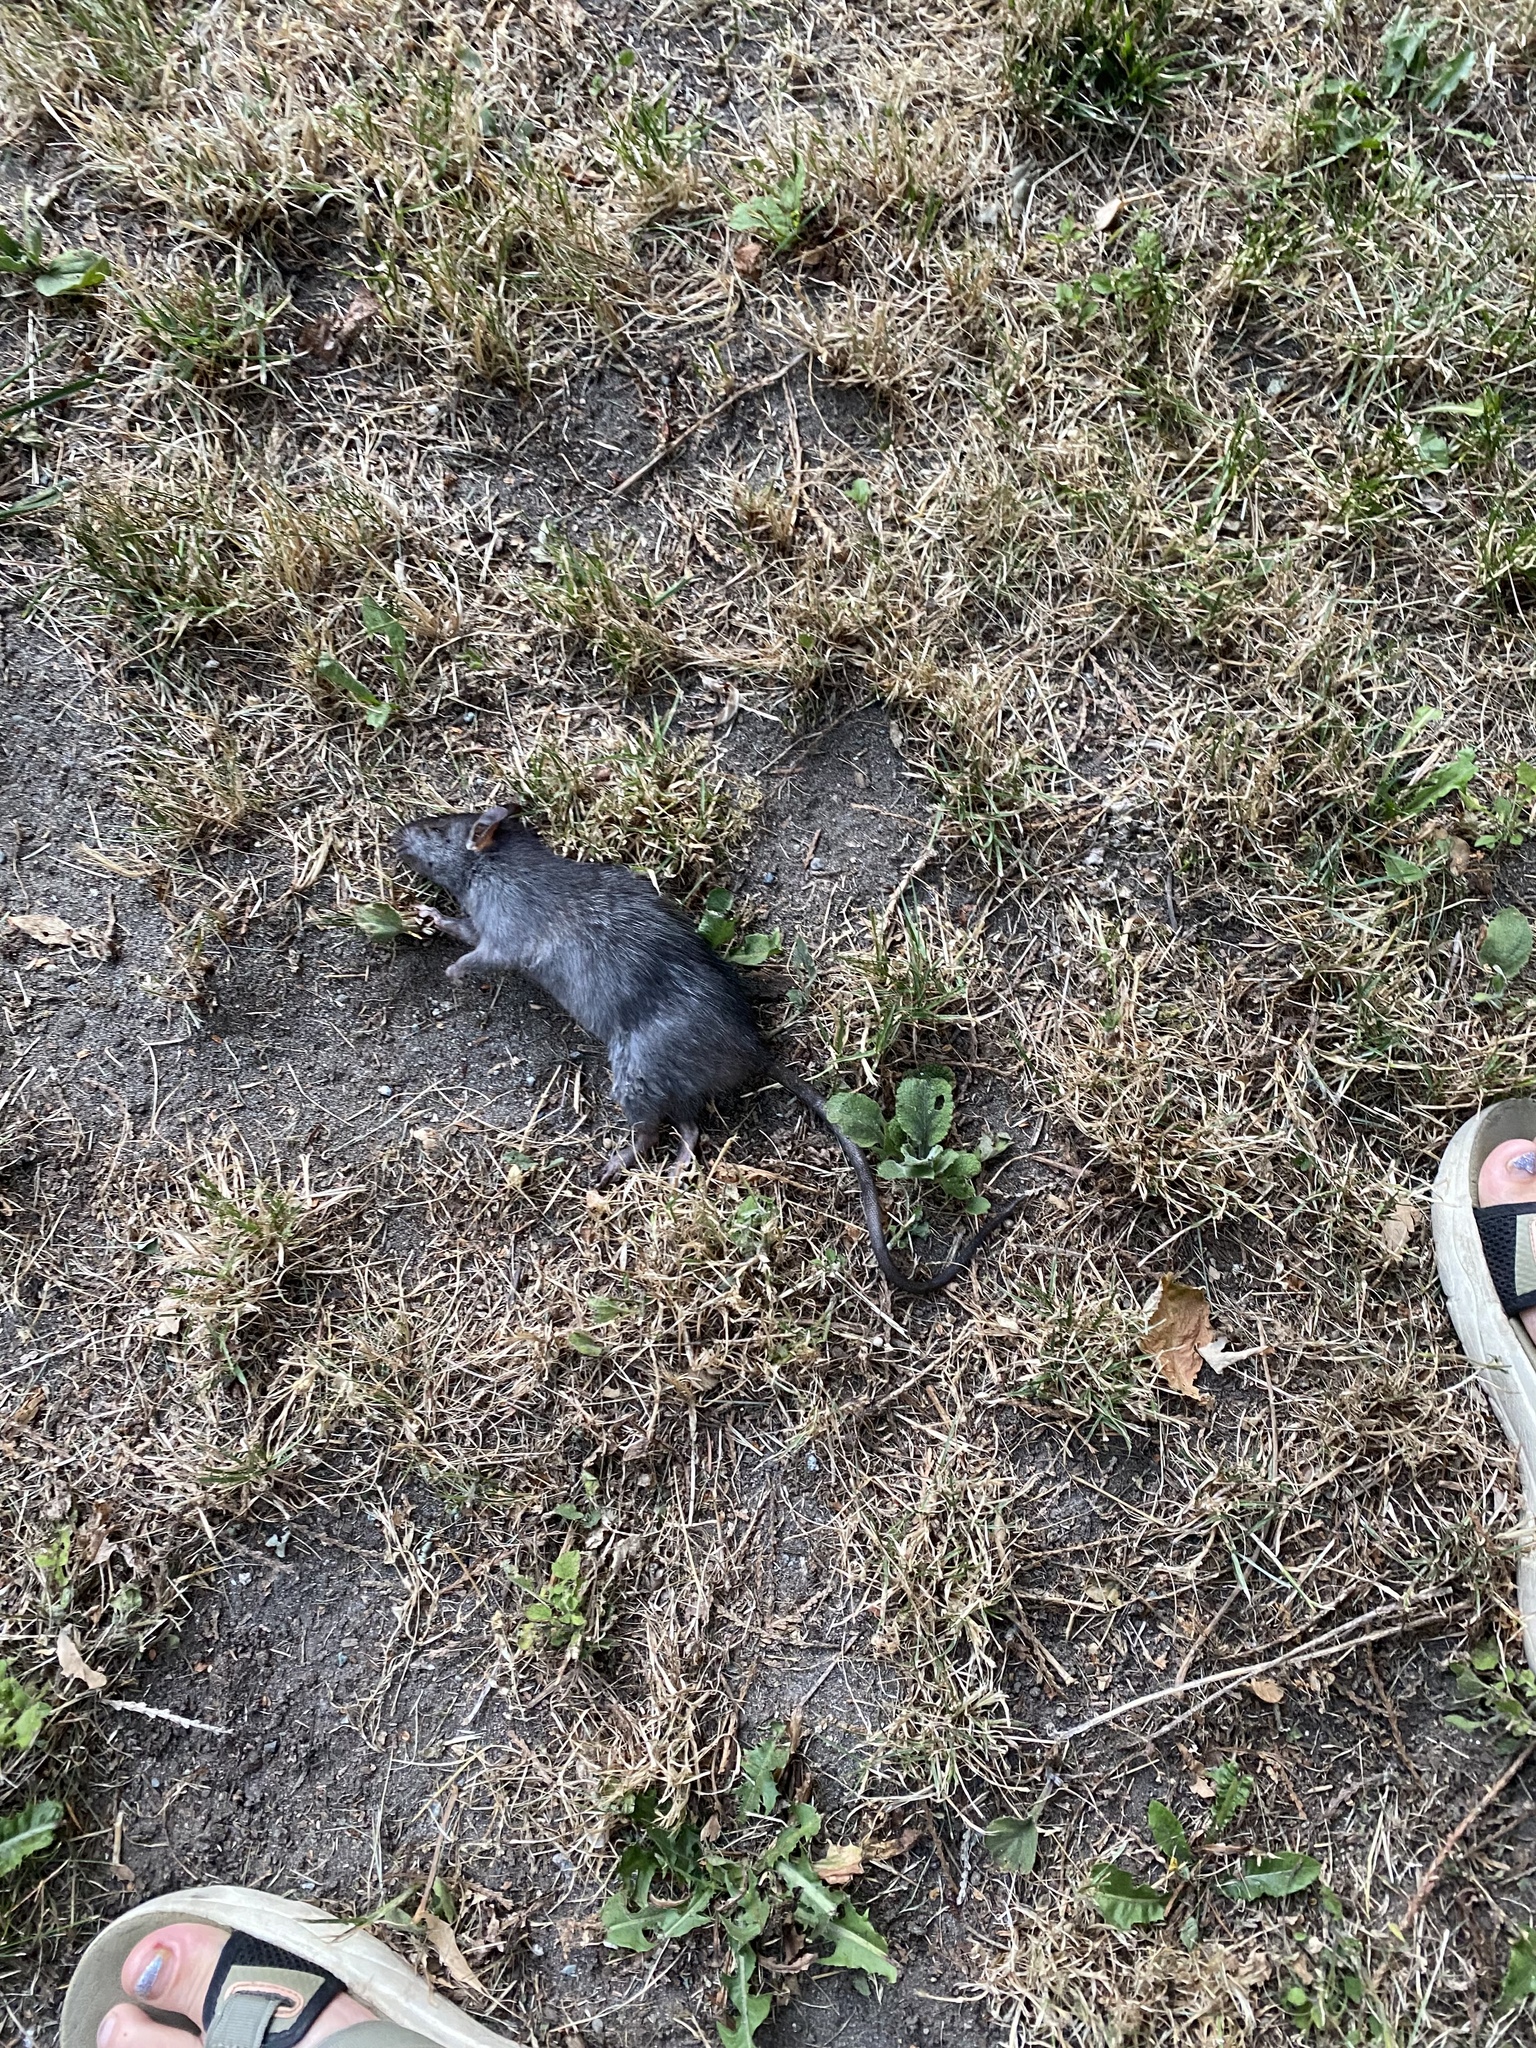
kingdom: Animalia
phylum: Chordata
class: Mammalia
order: Rodentia
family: Muridae
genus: Rattus
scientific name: Rattus rattus
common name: Black rat
